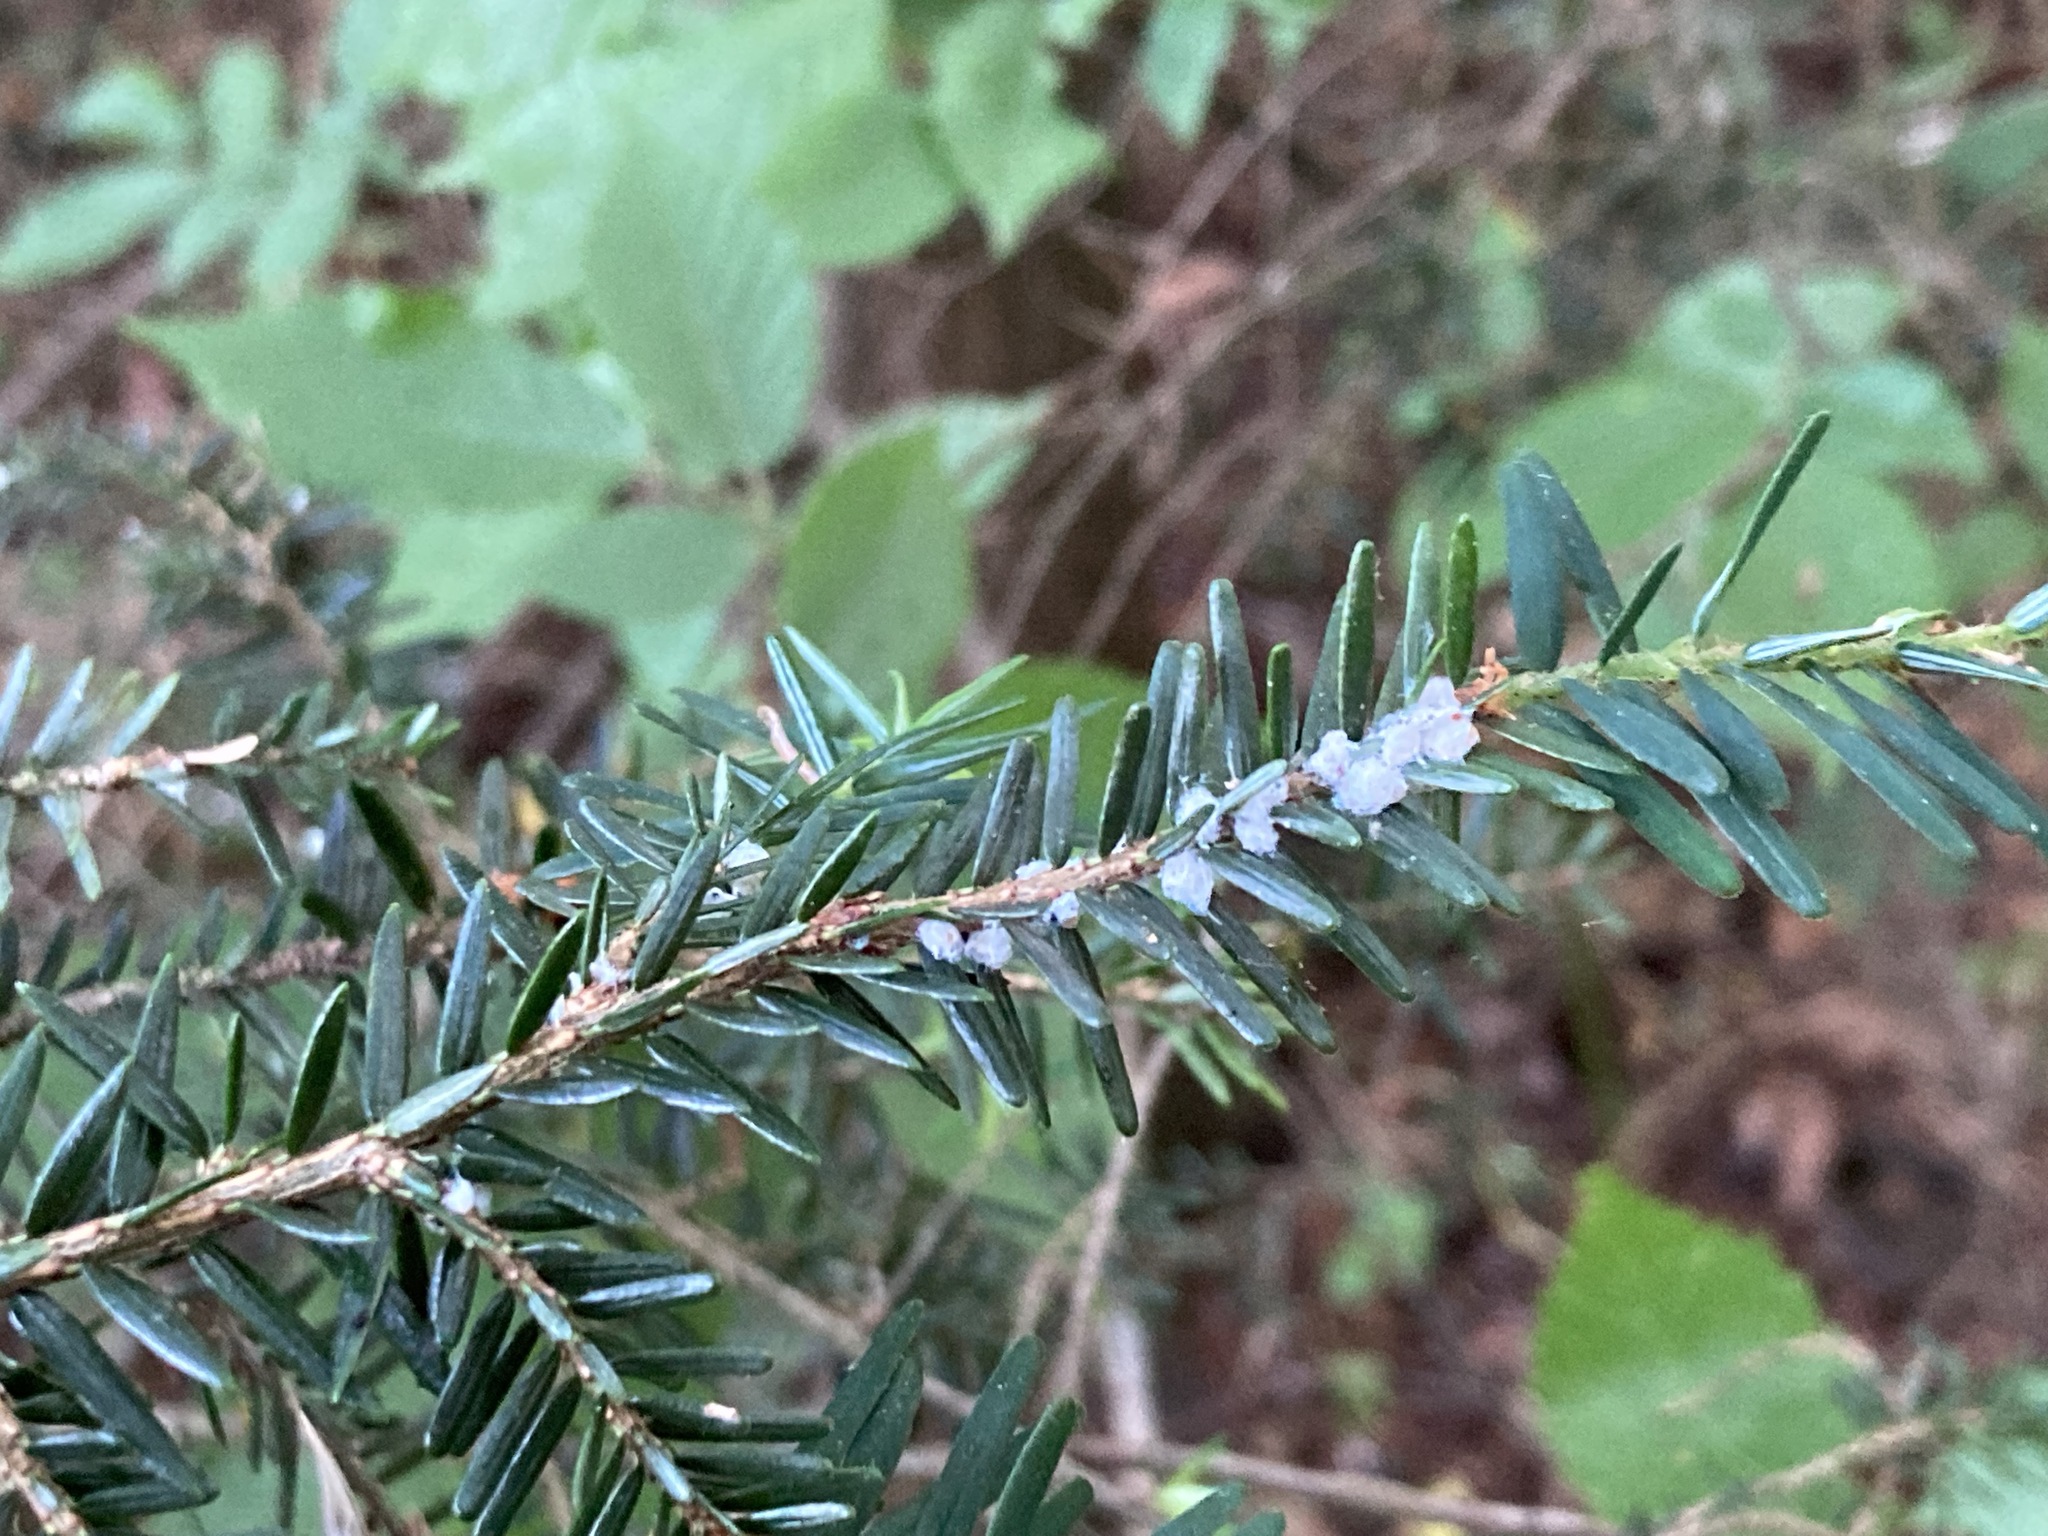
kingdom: Plantae
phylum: Tracheophyta
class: Pinopsida
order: Pinales
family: Pinaceae
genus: Tsuga
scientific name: Tsuga canadensis
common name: Eastern hemlock
